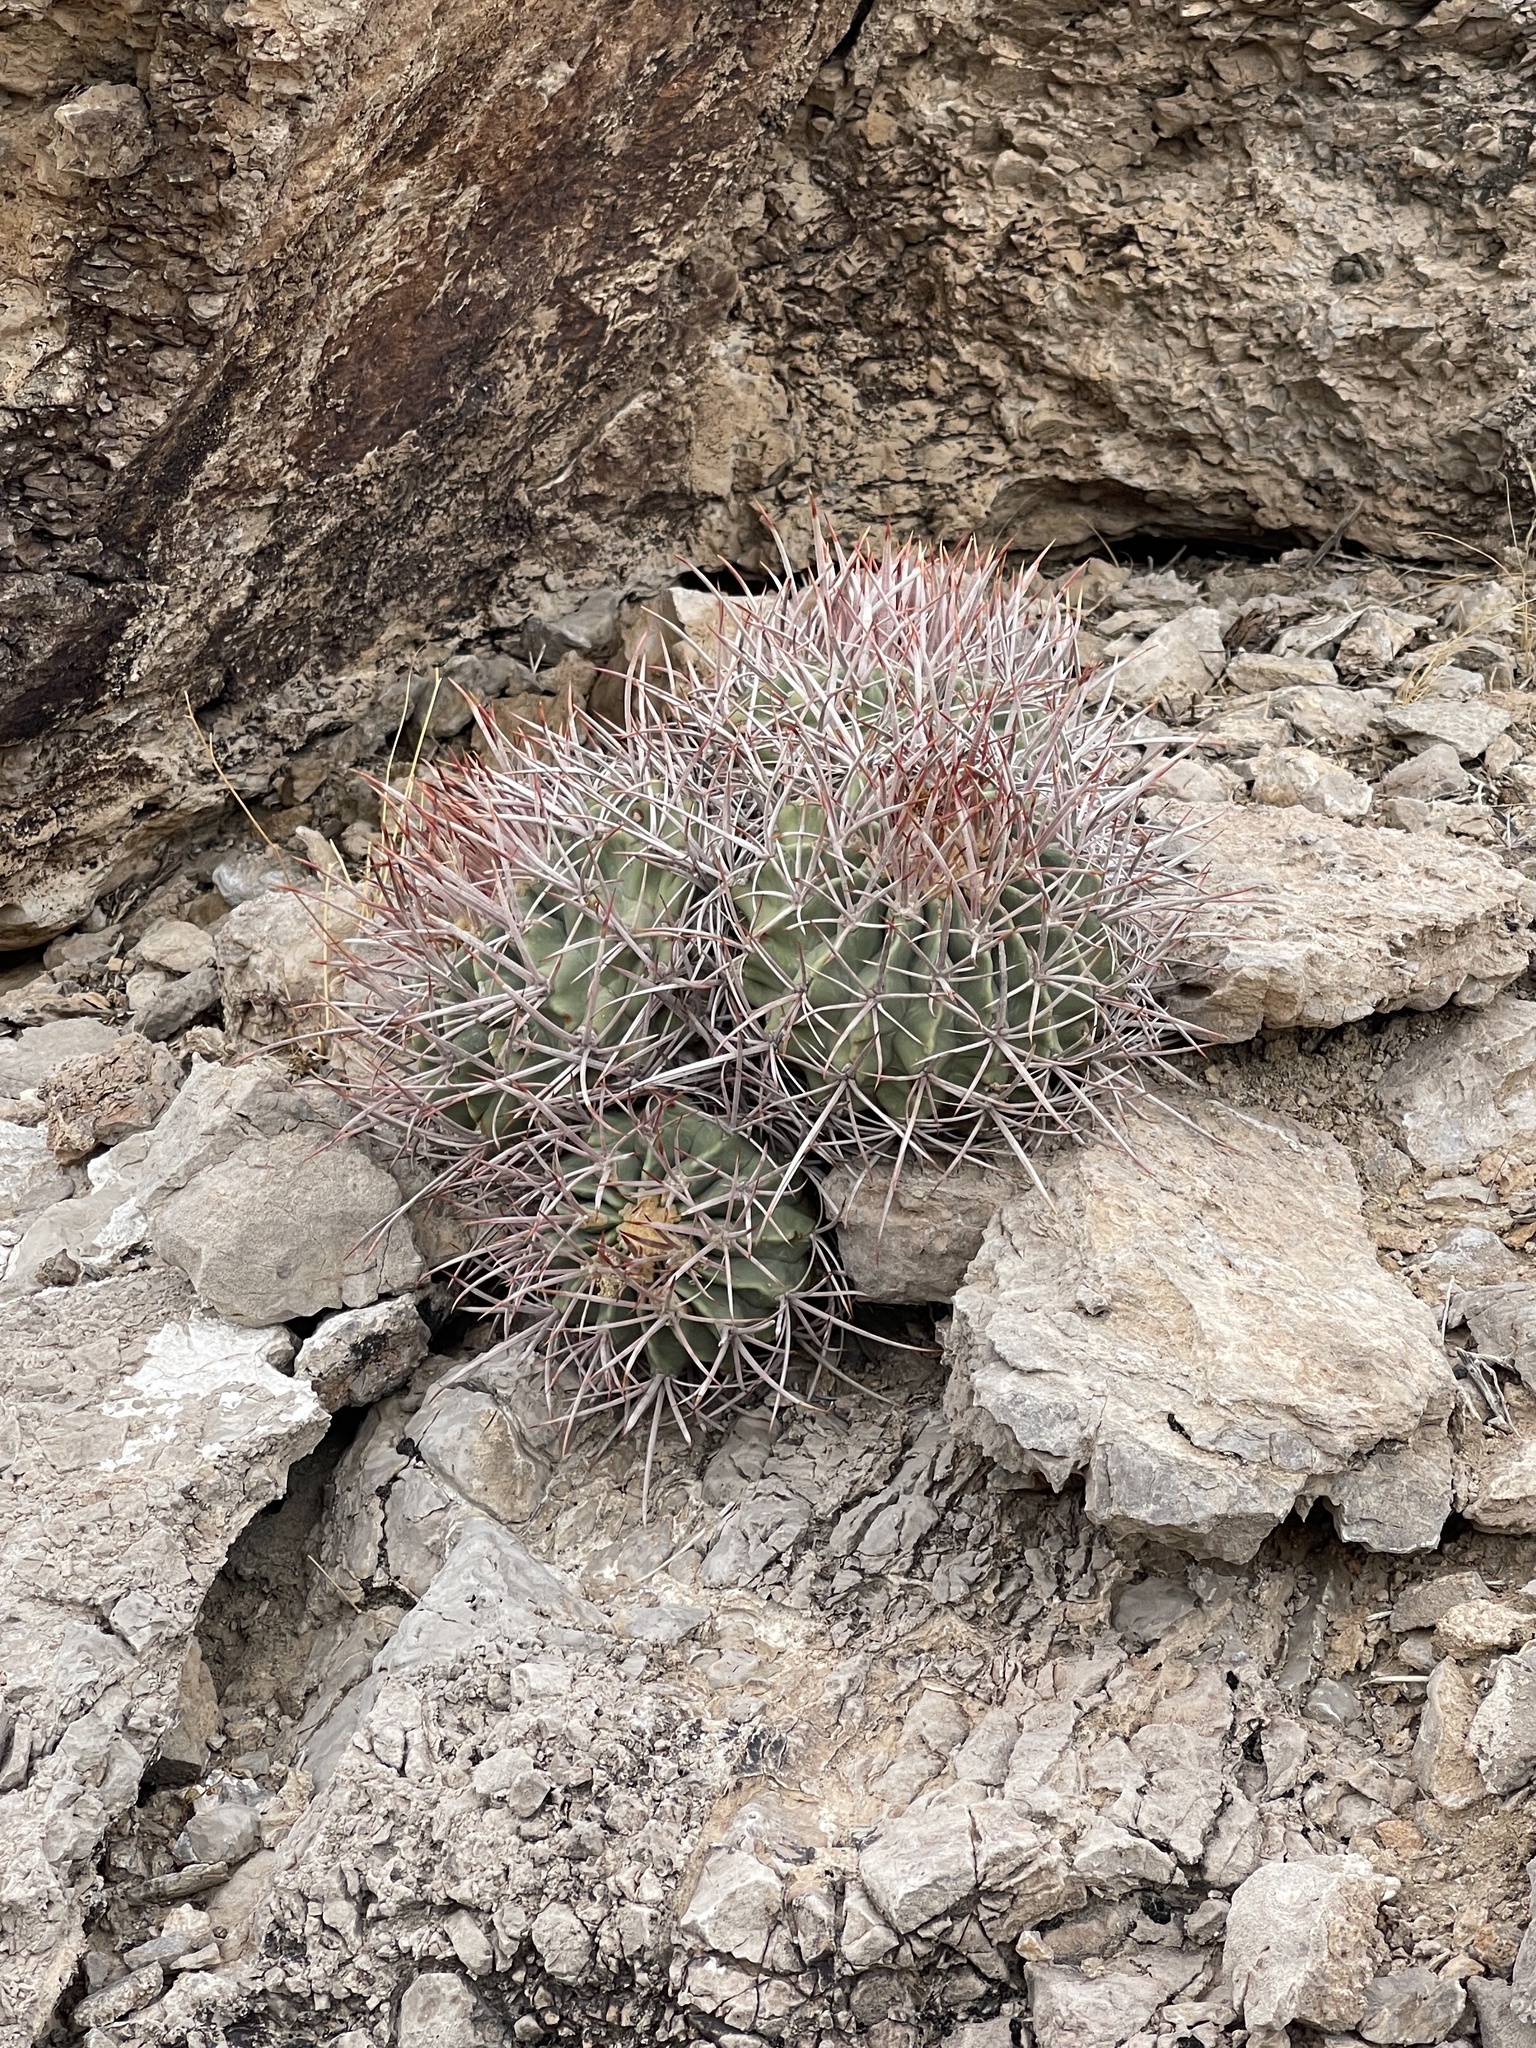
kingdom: Plantae
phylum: Tracheophyta
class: Magnoliopsida
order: Caryophyllales
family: Cactaceae
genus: Echinocactus
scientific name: Echinocactus polycephalus
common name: Cottontop cactus
